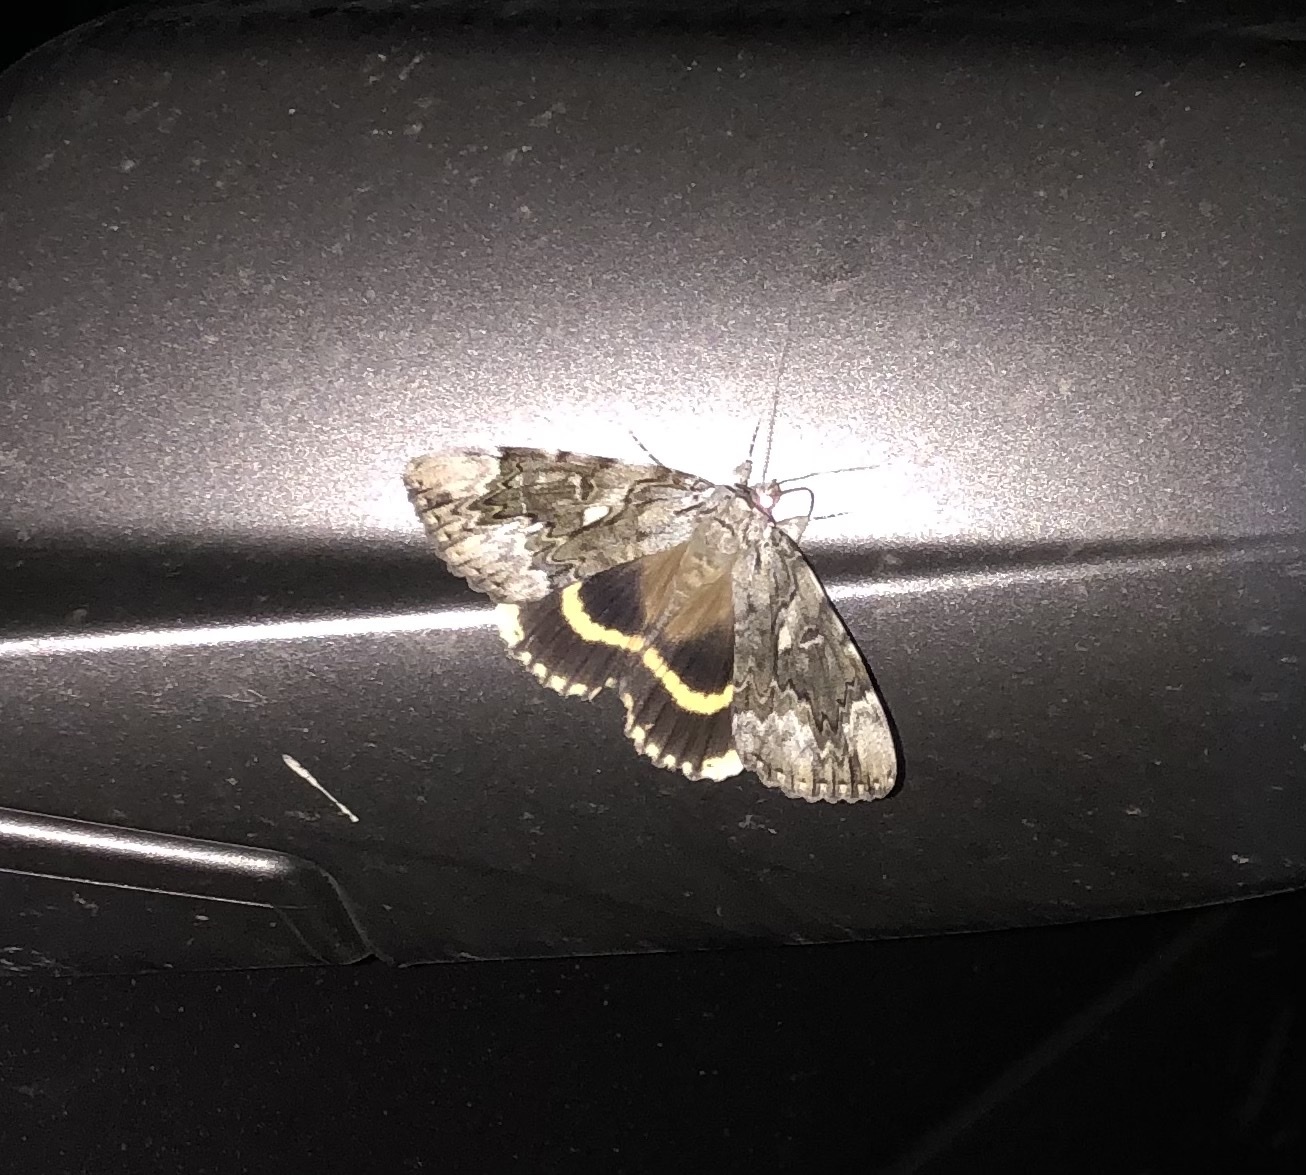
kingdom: Animalia
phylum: Arthropoda
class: Insecta
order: Lepidoptera
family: Erebidae
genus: Catocala
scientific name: Catocala cerogama
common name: Yellow banded underwing
